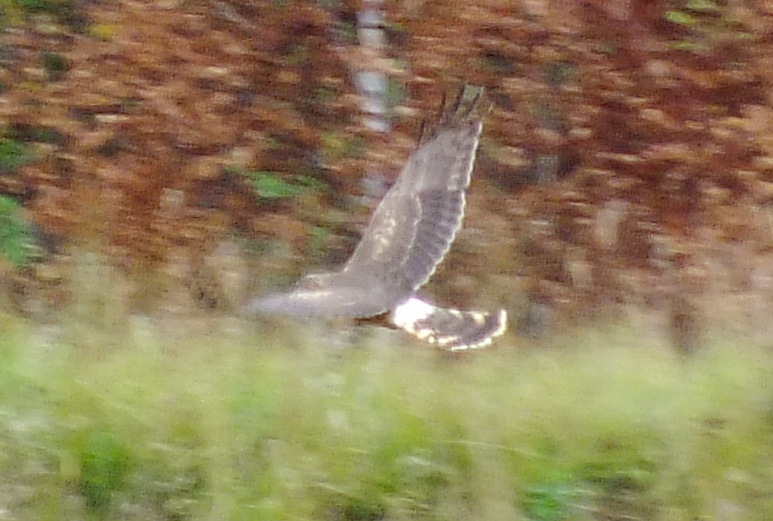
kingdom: Animalia
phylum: Chordata
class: Aves
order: Accipitriformes
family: Accipitridae
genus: Circus
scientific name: Circus cyaneus
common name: Hen harrier
